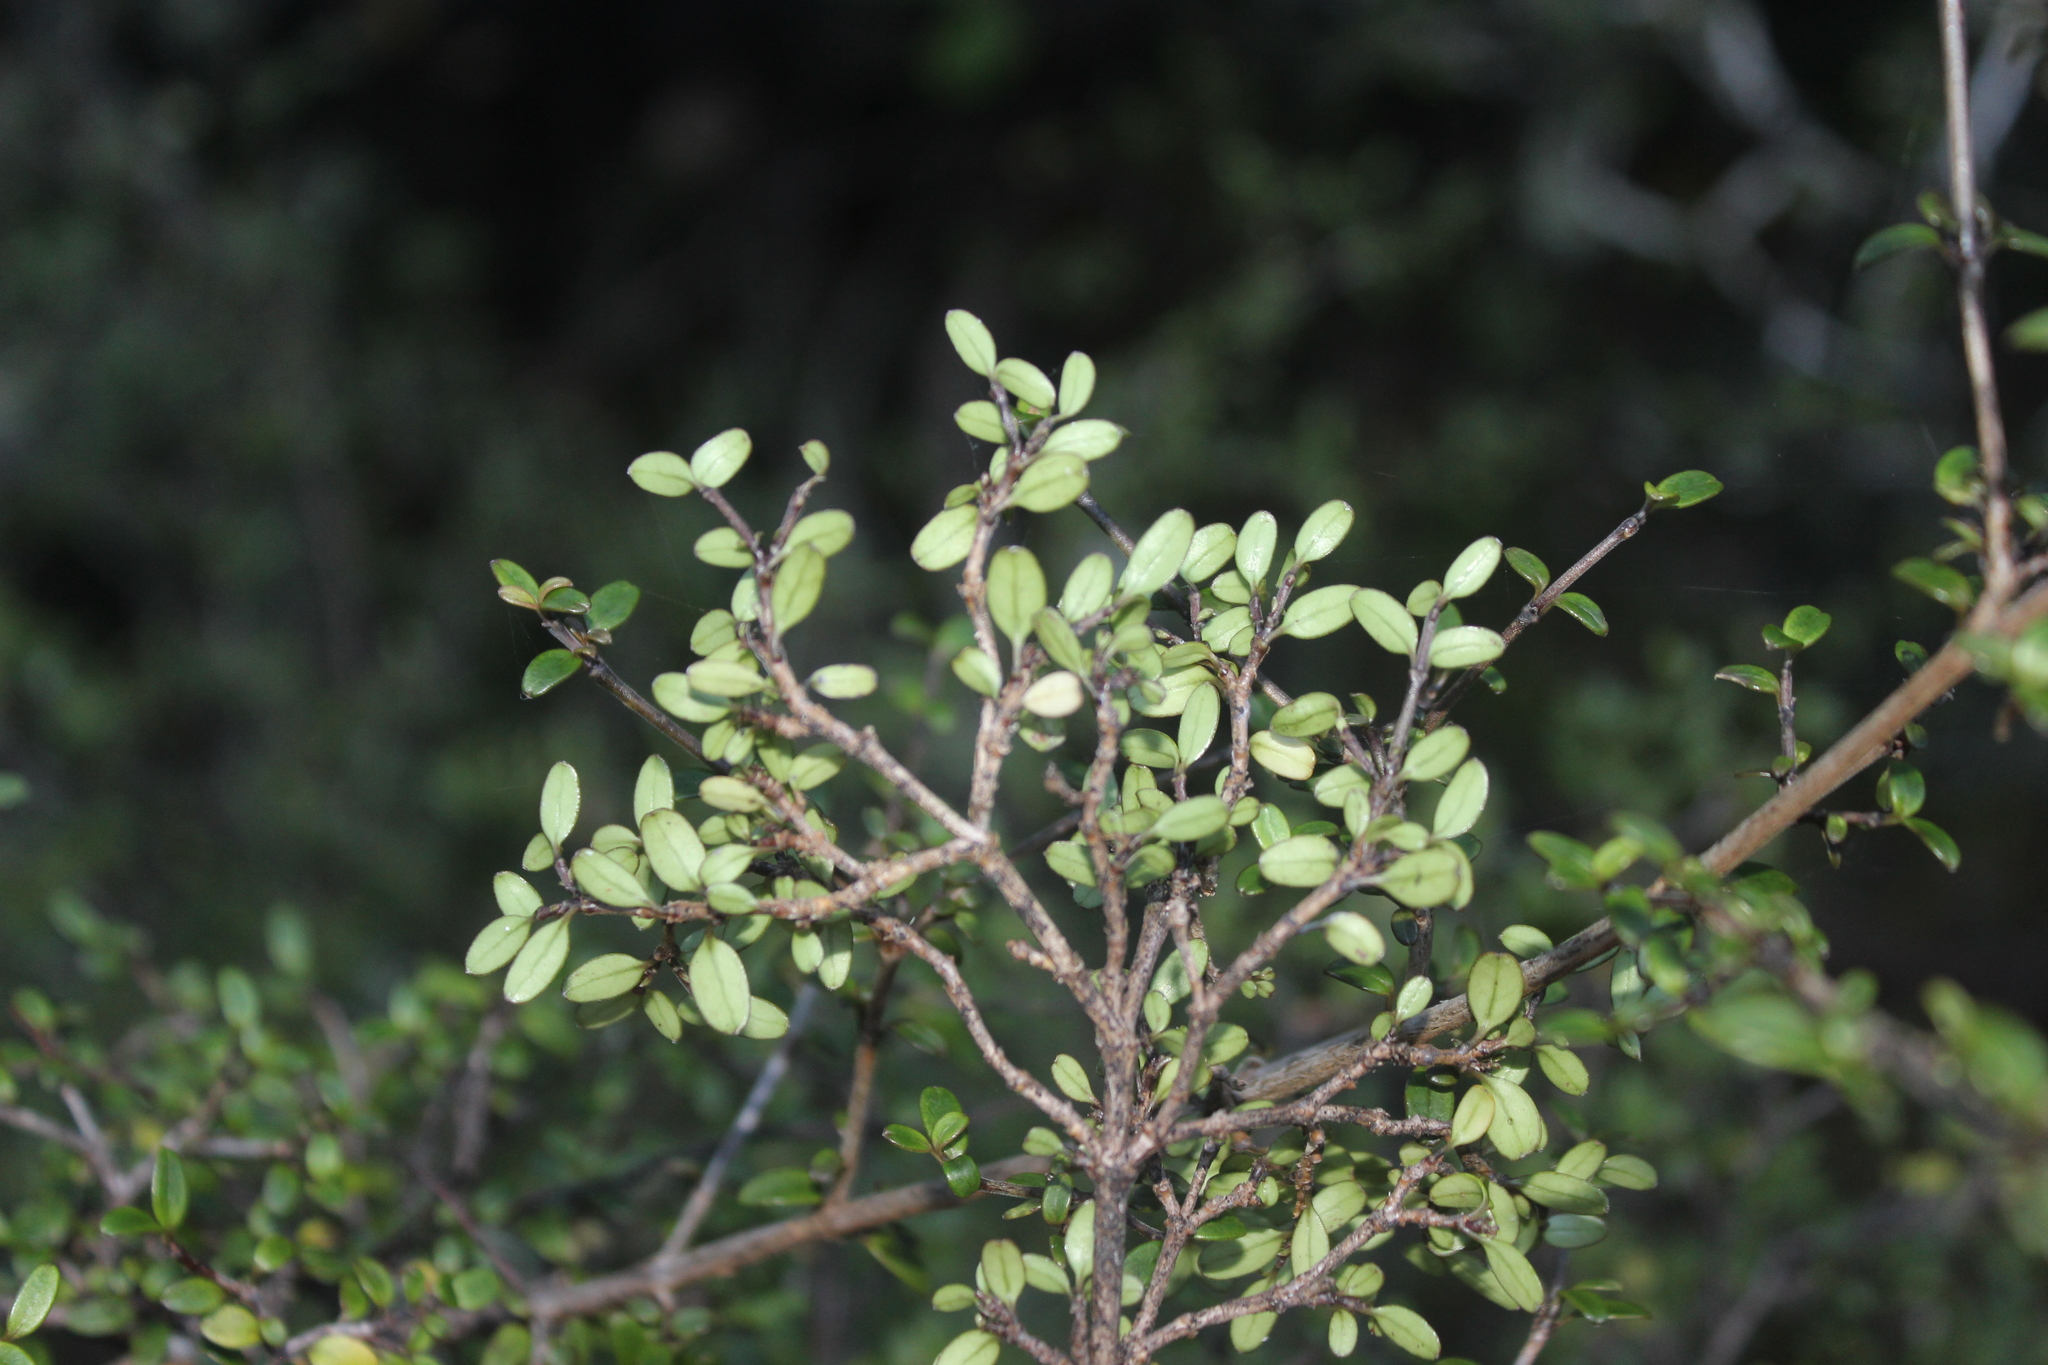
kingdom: Plantae
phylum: Tracheophyta
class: Magnoliopsida
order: Gentianales
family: Rubiaceae
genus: Coprosma
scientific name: Coprosma dumosa
